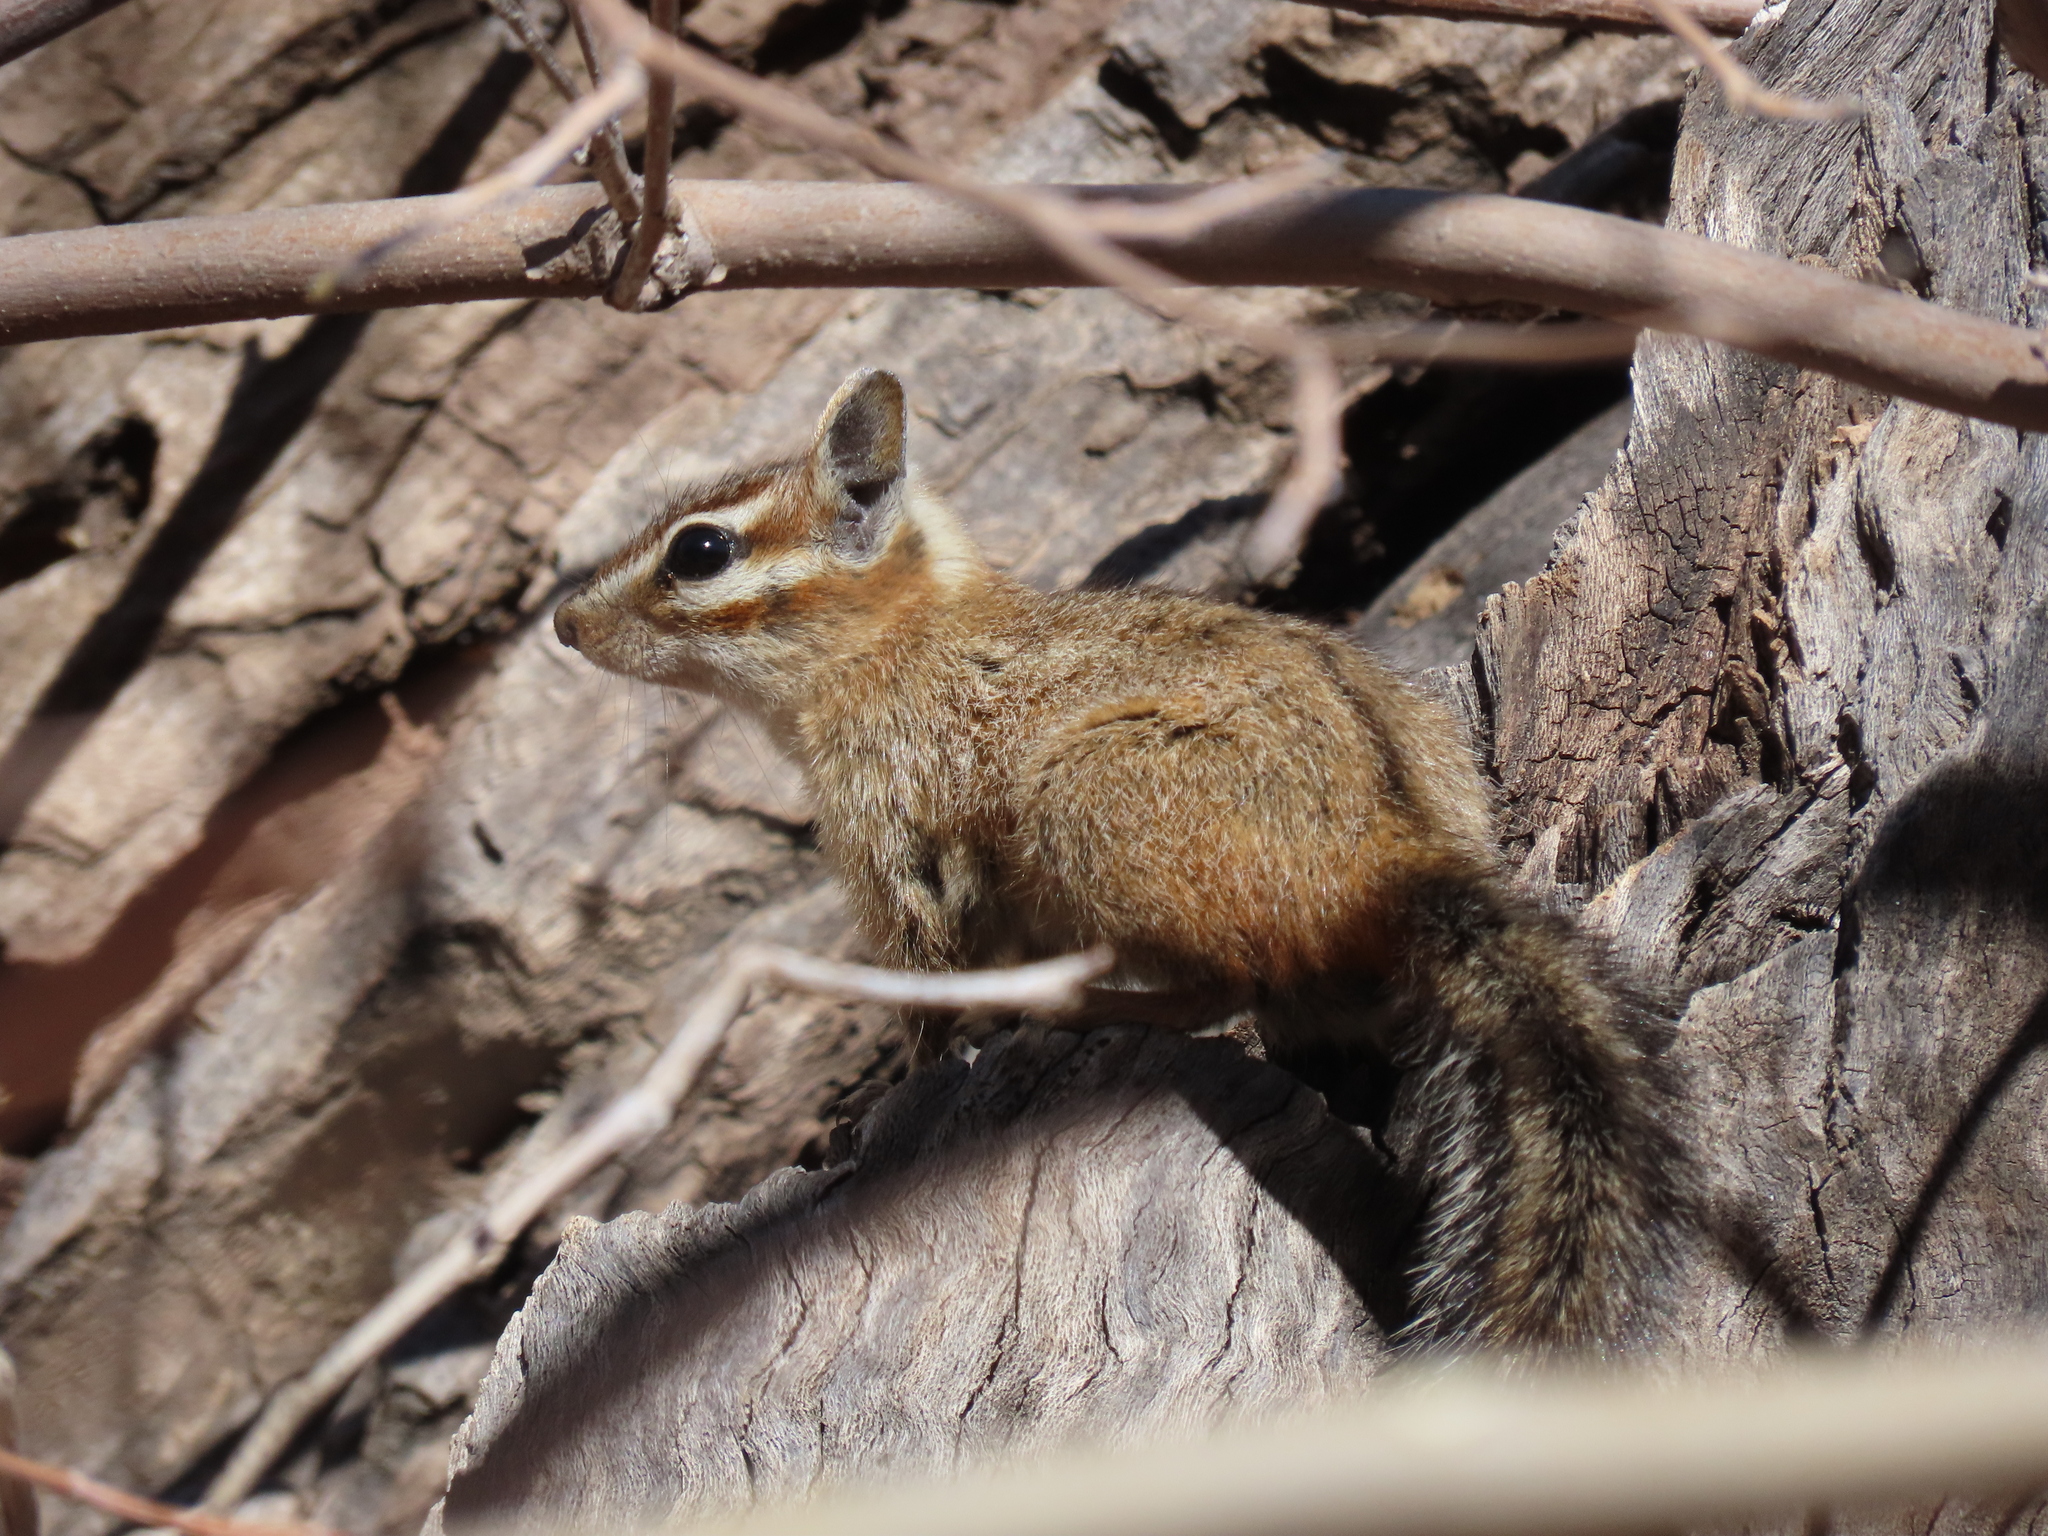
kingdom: Animalia
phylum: Chordata
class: Mammalia
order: Rodentia
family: Sciuridae
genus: Tamias
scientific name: Tamias dorsalis
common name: Cliff chipmunk
